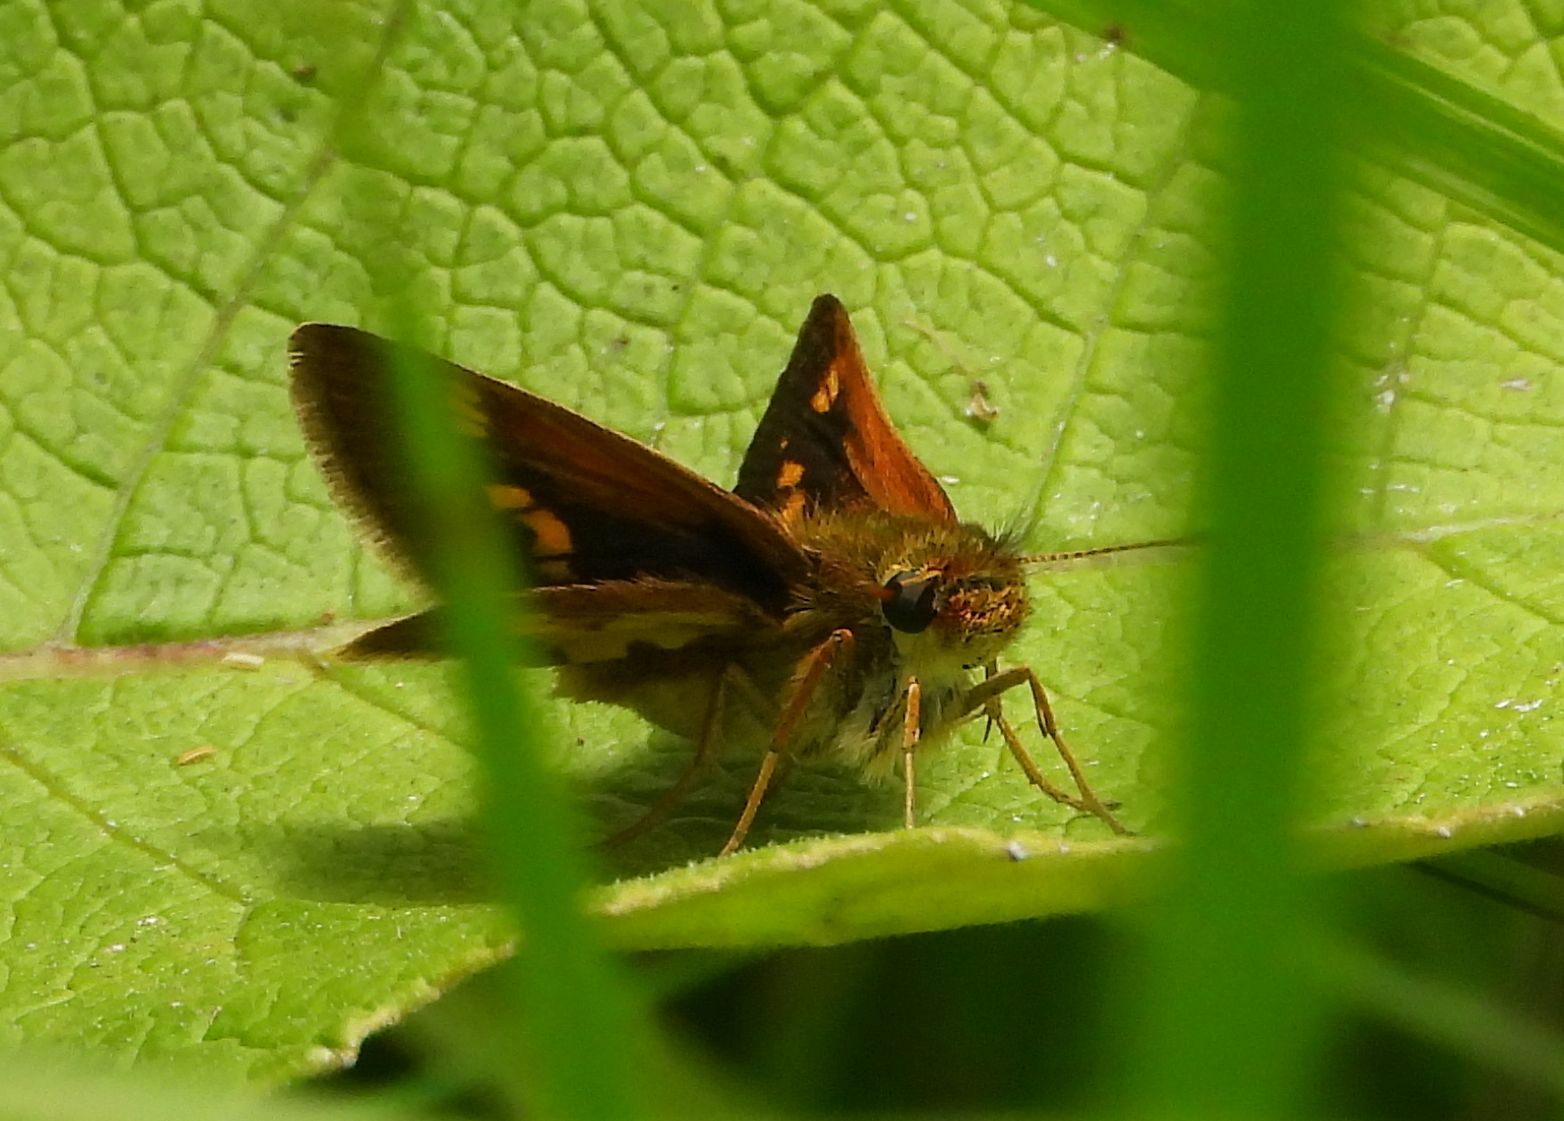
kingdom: Animalia
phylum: Arthropoda
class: Insecta
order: Lepidoptera
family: Hesperiidae
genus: Polites
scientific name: Polites coras
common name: Peck's skipper
